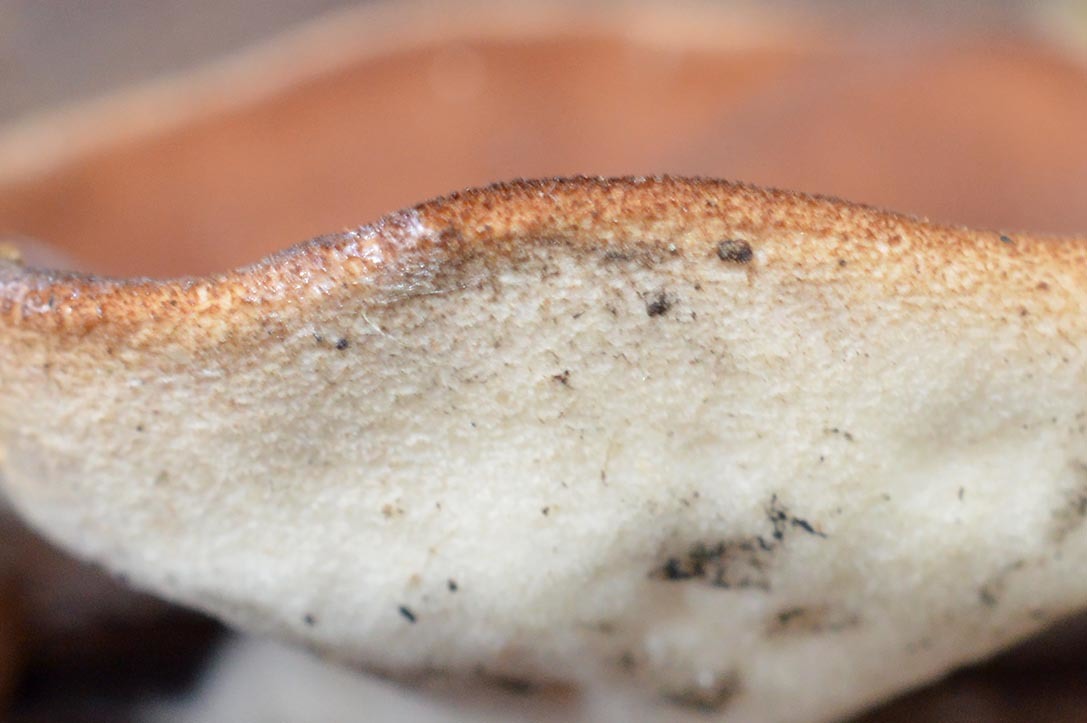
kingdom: Fungi
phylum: Ascomycota
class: Pezizomycetes
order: Pezizales
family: Discinaceae
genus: Discina
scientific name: Discina
